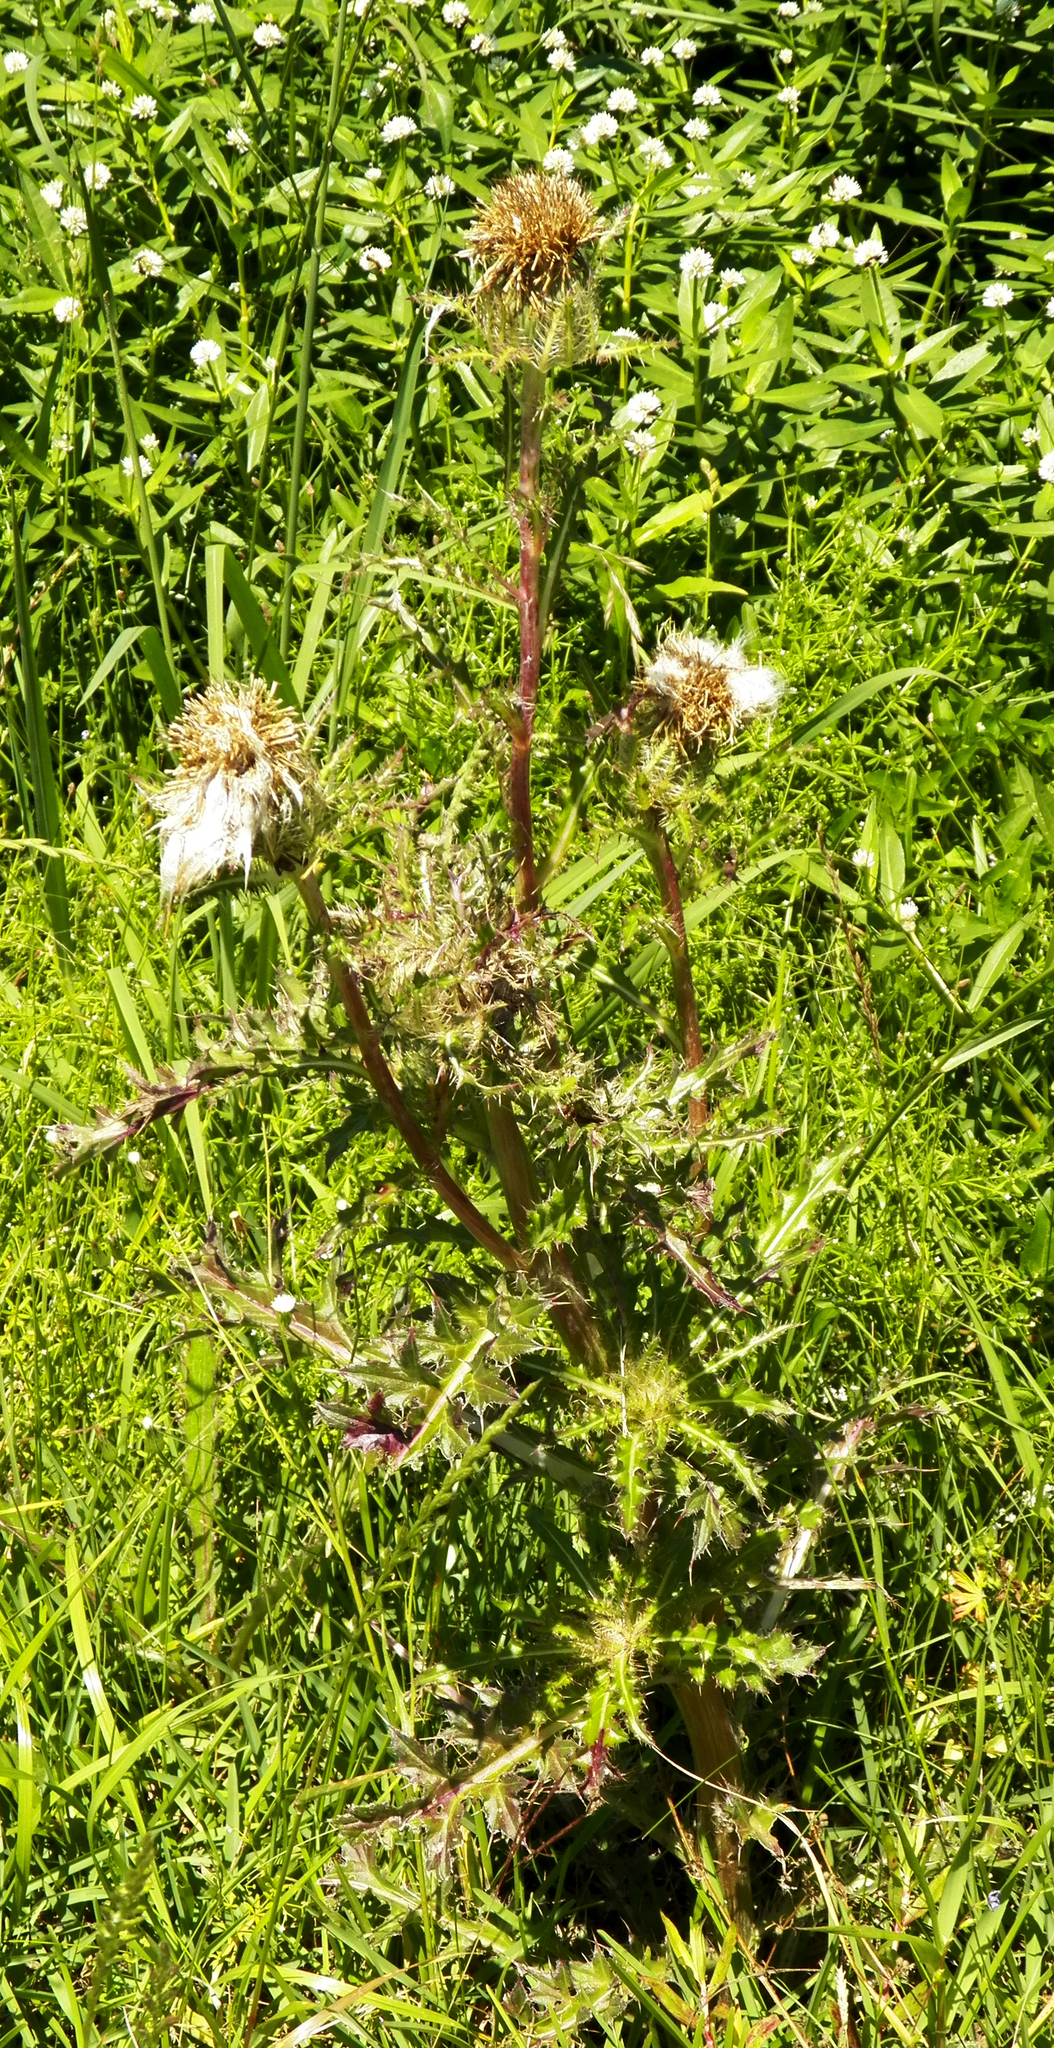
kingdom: Plantae
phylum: Tracheophyta
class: Magnoliopsida
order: Asterales
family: Asteraceae
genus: Cirsium
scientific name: Cirsium horridulum
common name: Bristly thistle
